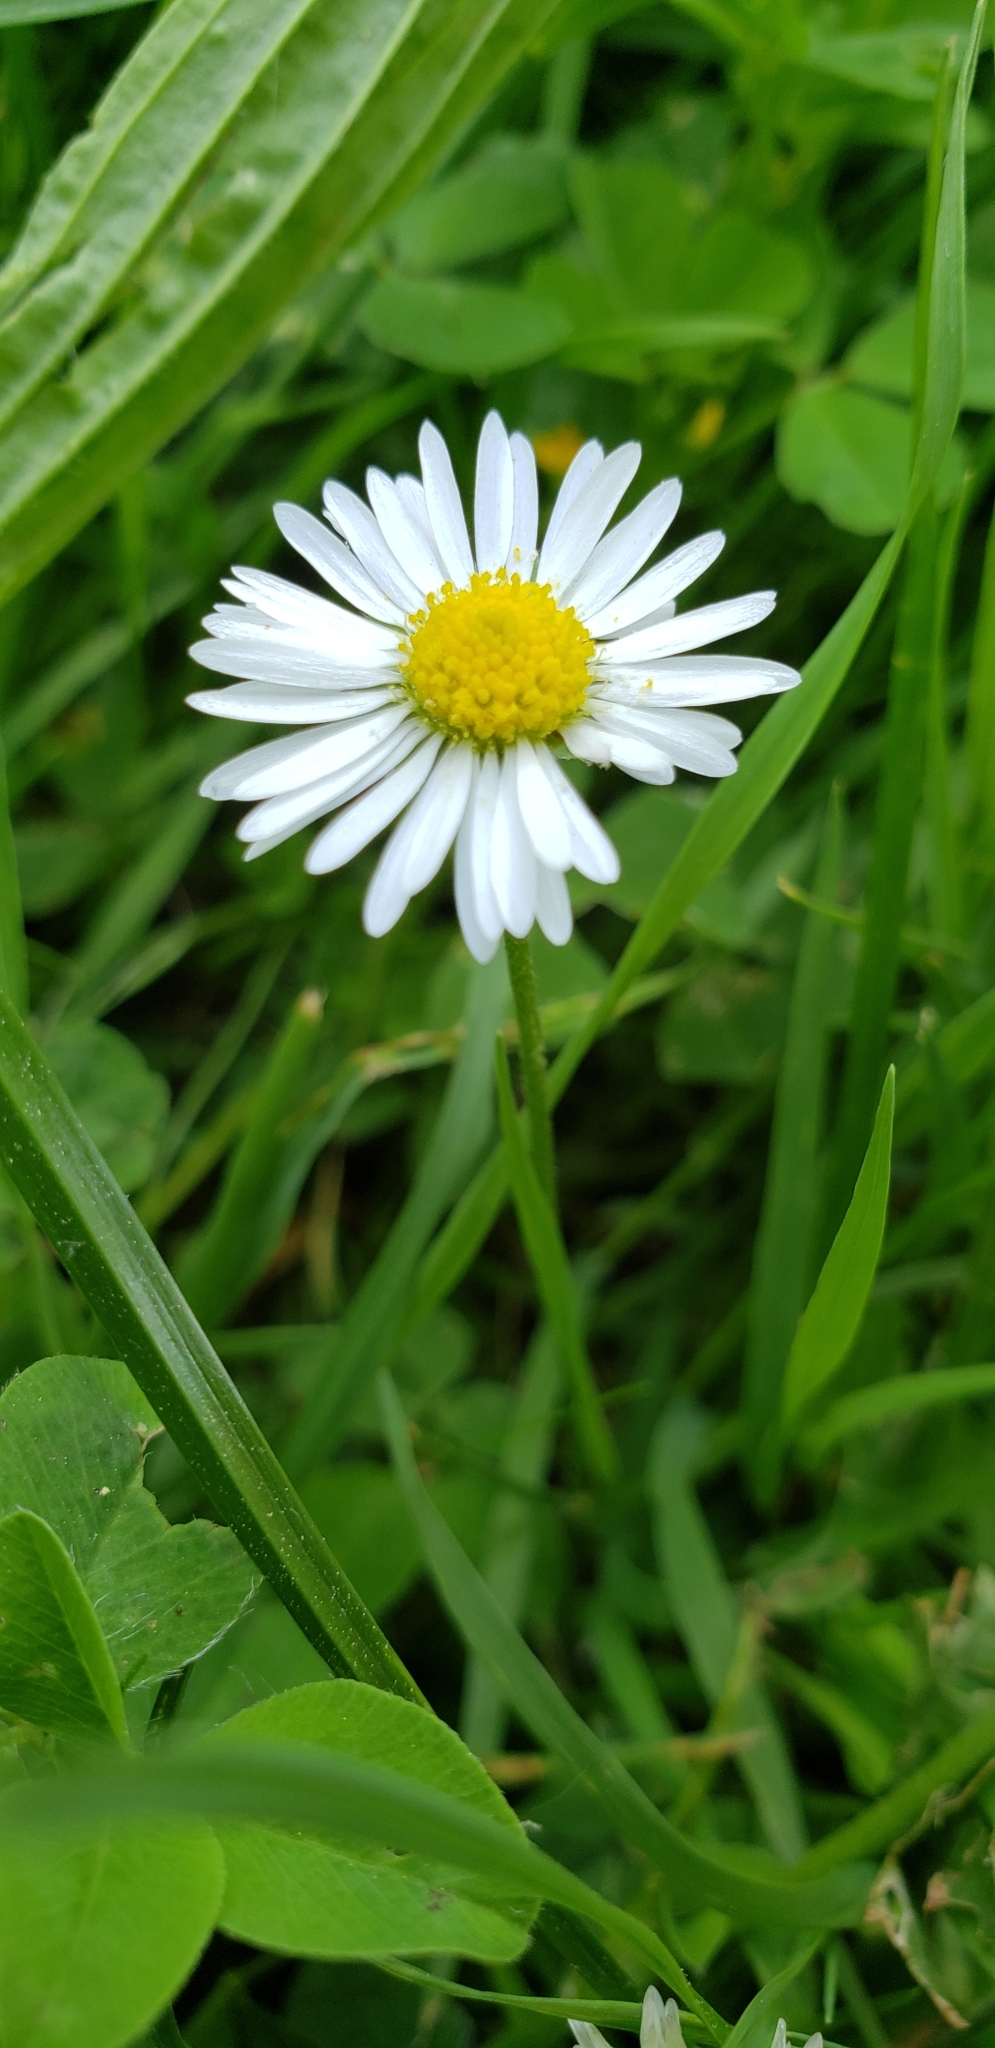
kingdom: Plantae
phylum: Tracheophyta
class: Magnoliopsida
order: Asterales
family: Asteraceae
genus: Bellis
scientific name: Bellis perennis
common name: Lawndaisy
